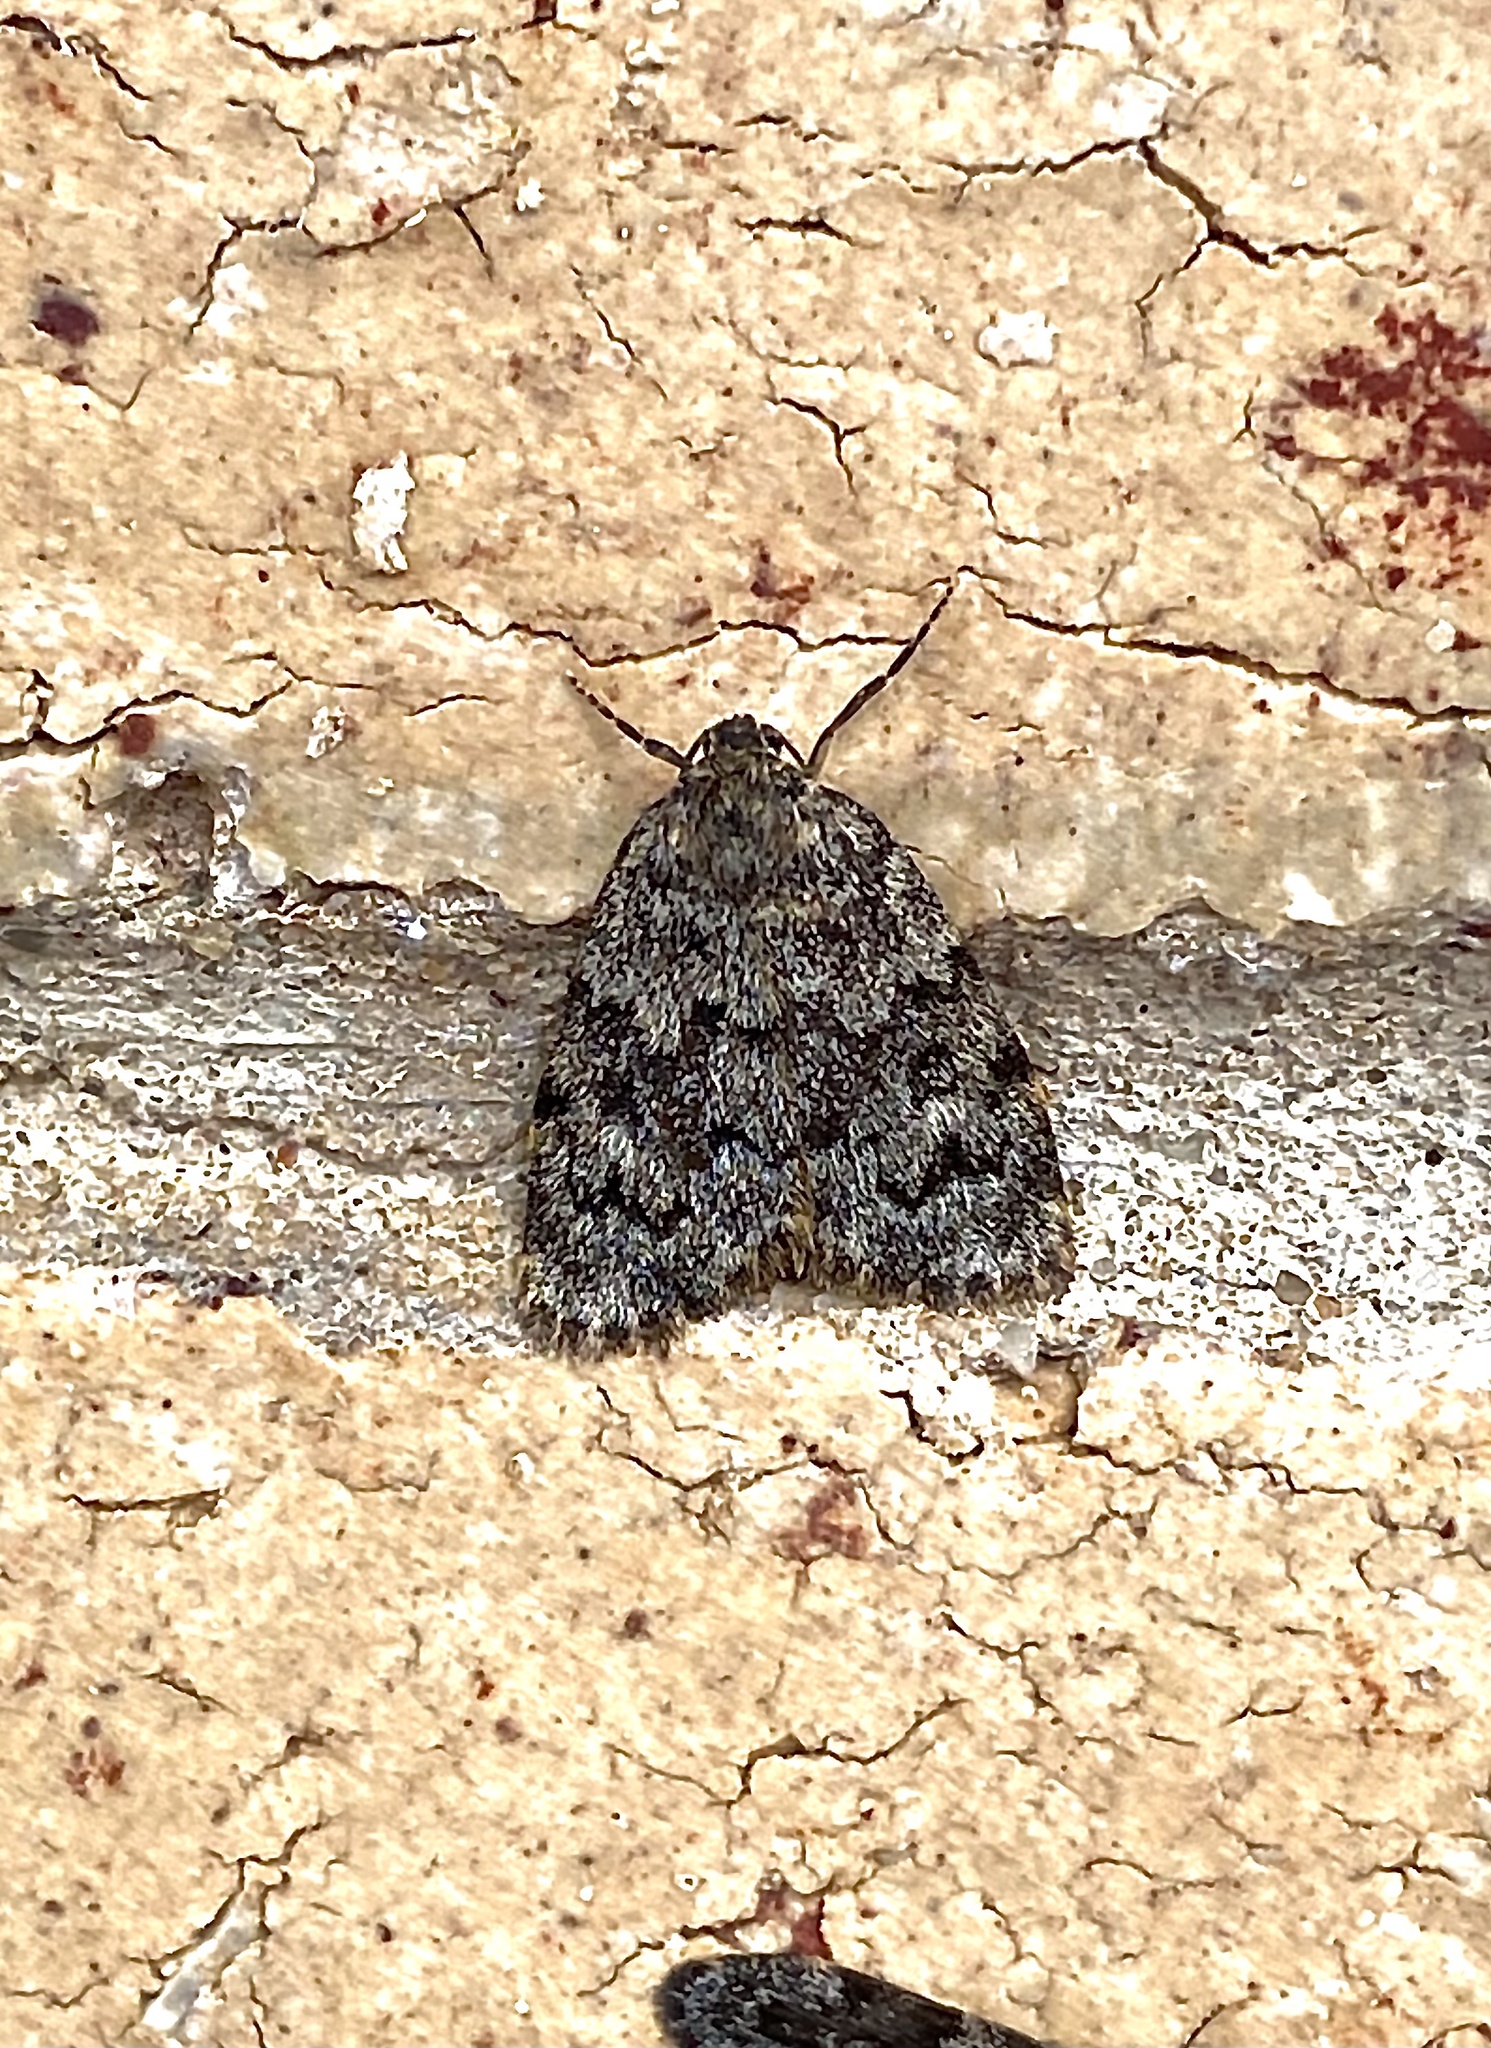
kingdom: Animalia
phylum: Arthropoda
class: Insecta
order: Lepidoptera
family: Erebidae
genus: Halone
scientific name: Halone consolatrix
